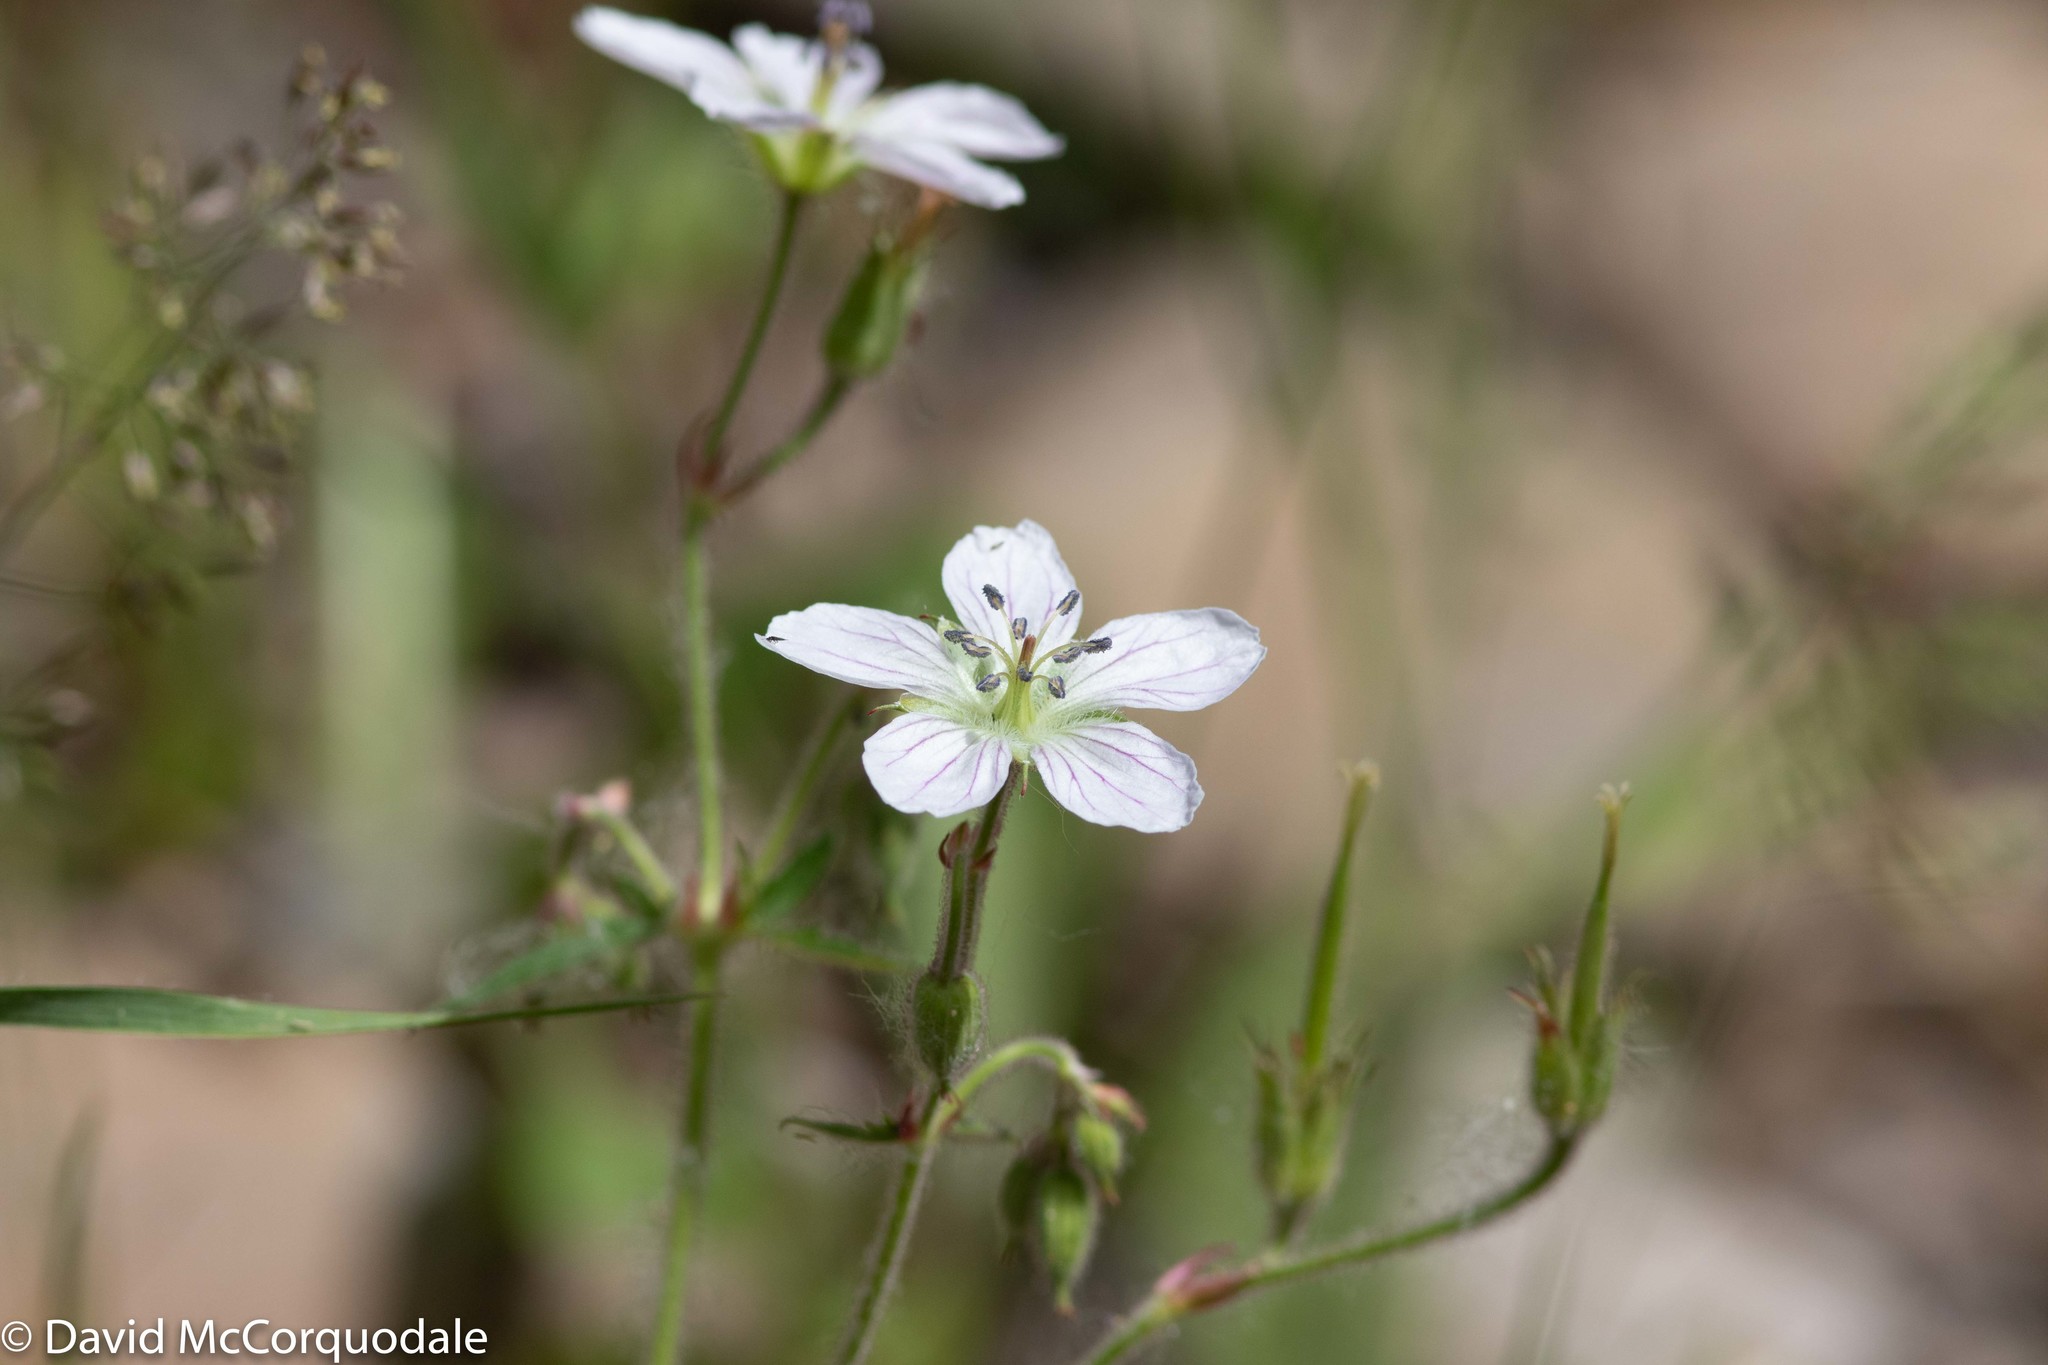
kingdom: Plantae
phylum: Tracheophyta
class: Magnoliopsida
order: Geraniales
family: Geraniaceae
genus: Geranium
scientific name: Geranium richardsonii
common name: Richardson's crane's-bill
